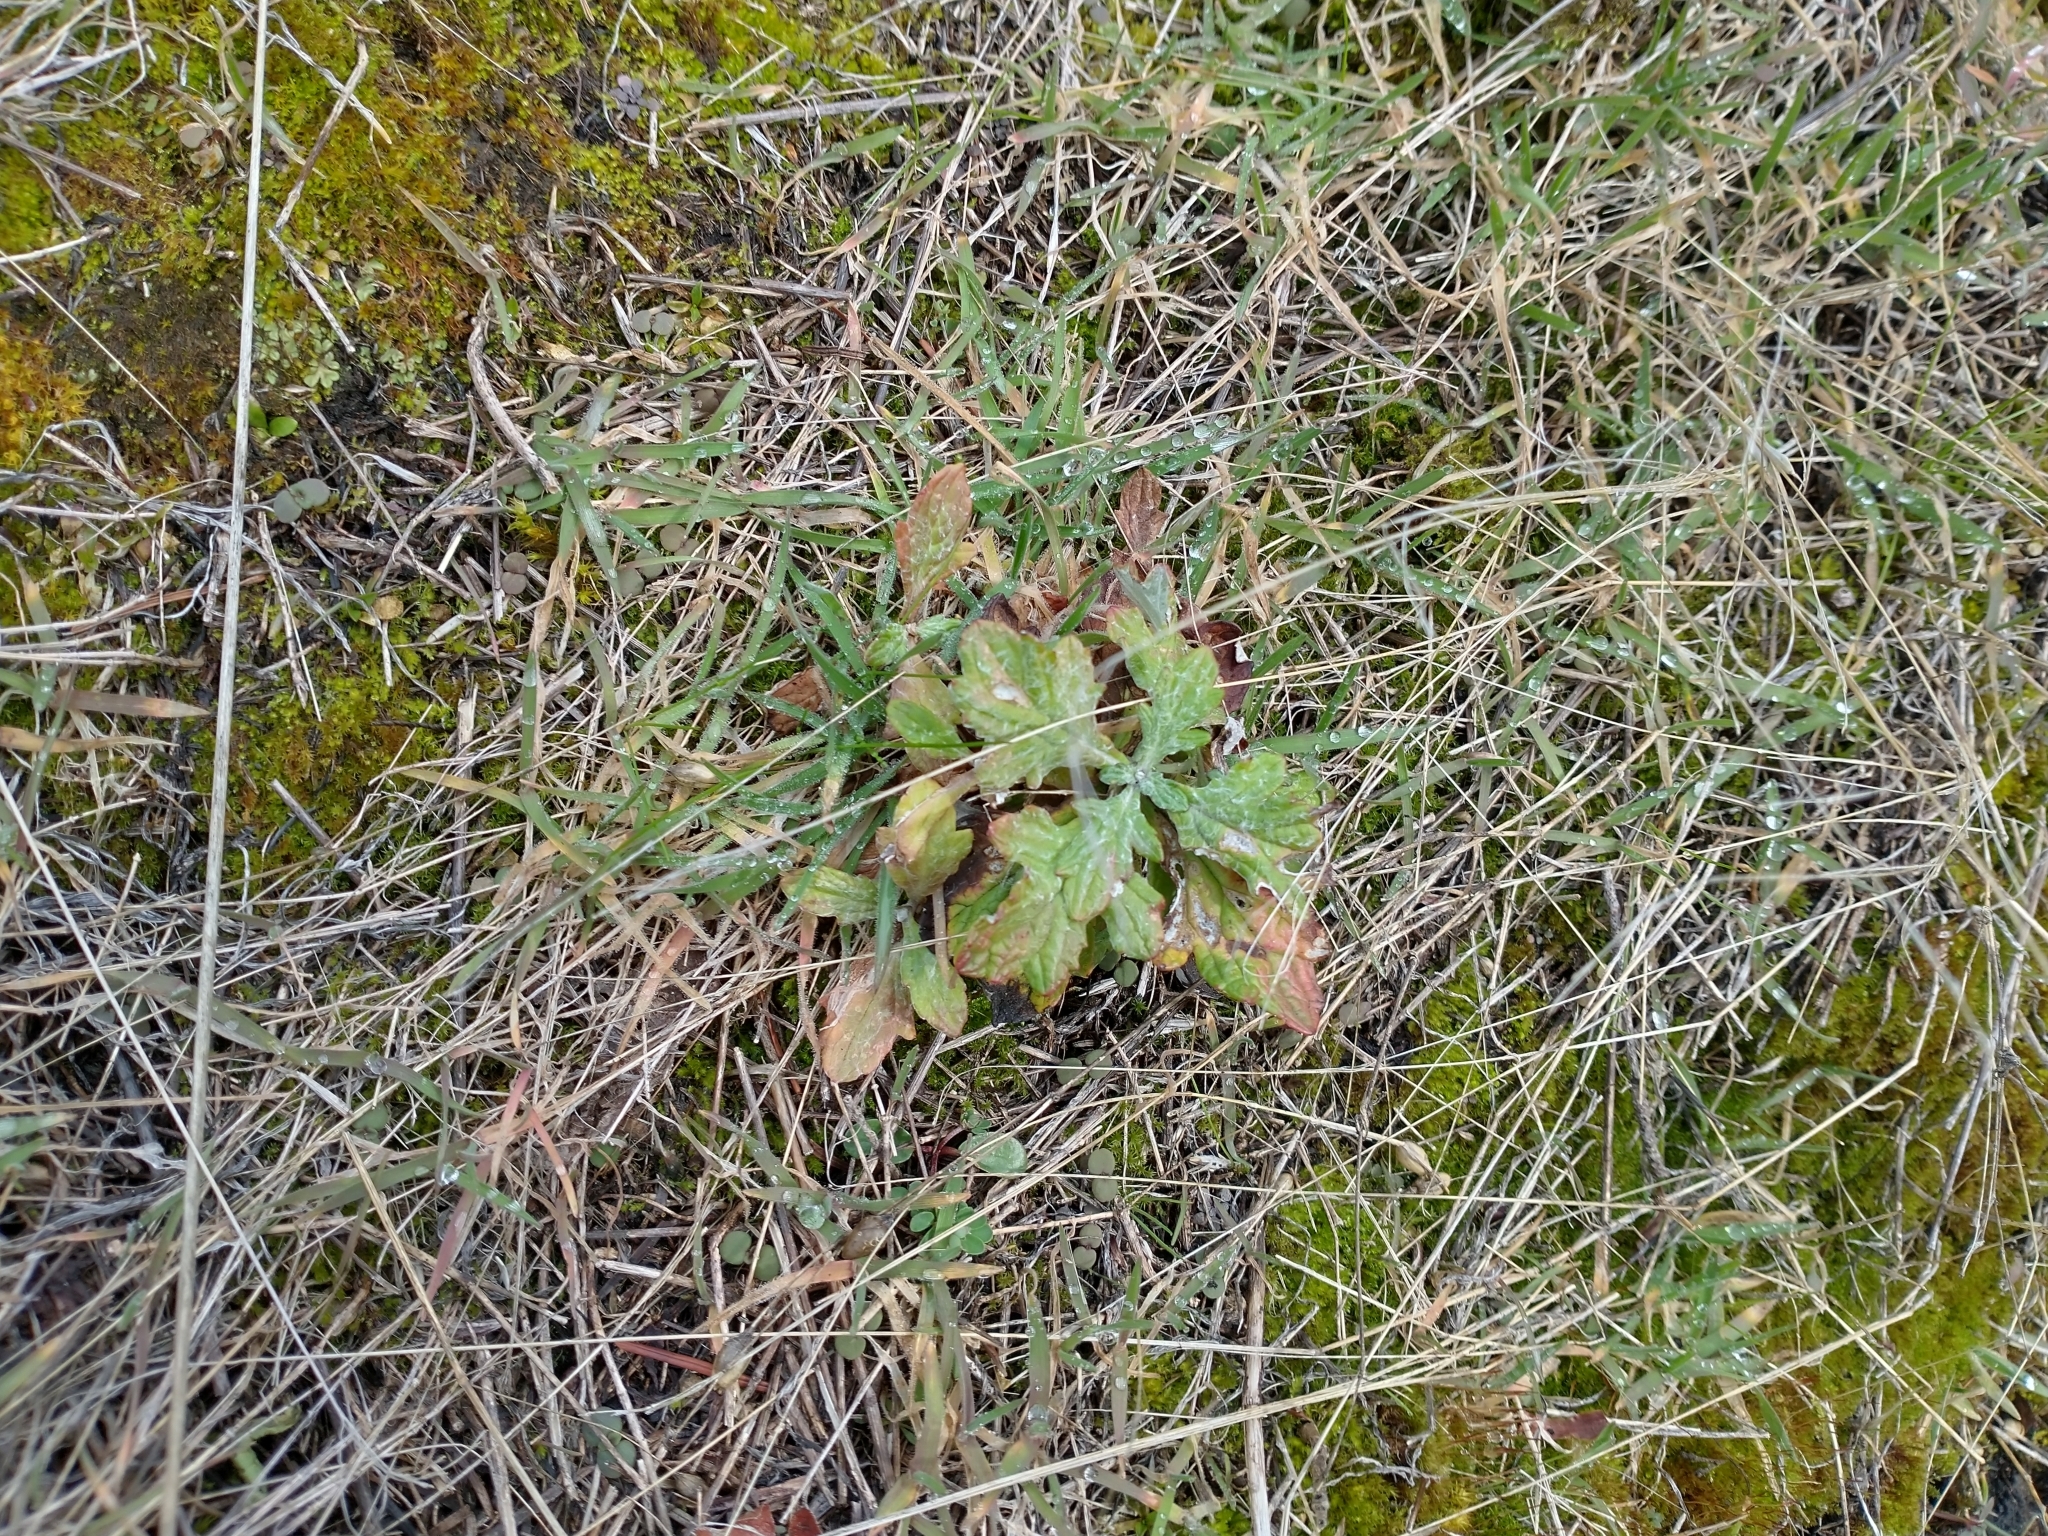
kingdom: Plantae
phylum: Tracheophyta
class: Magnoliopsida
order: Asterales
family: Asteraceae
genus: Eriophyllum
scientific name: Eriophyllum lanatum
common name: Common woolly-sunflower
